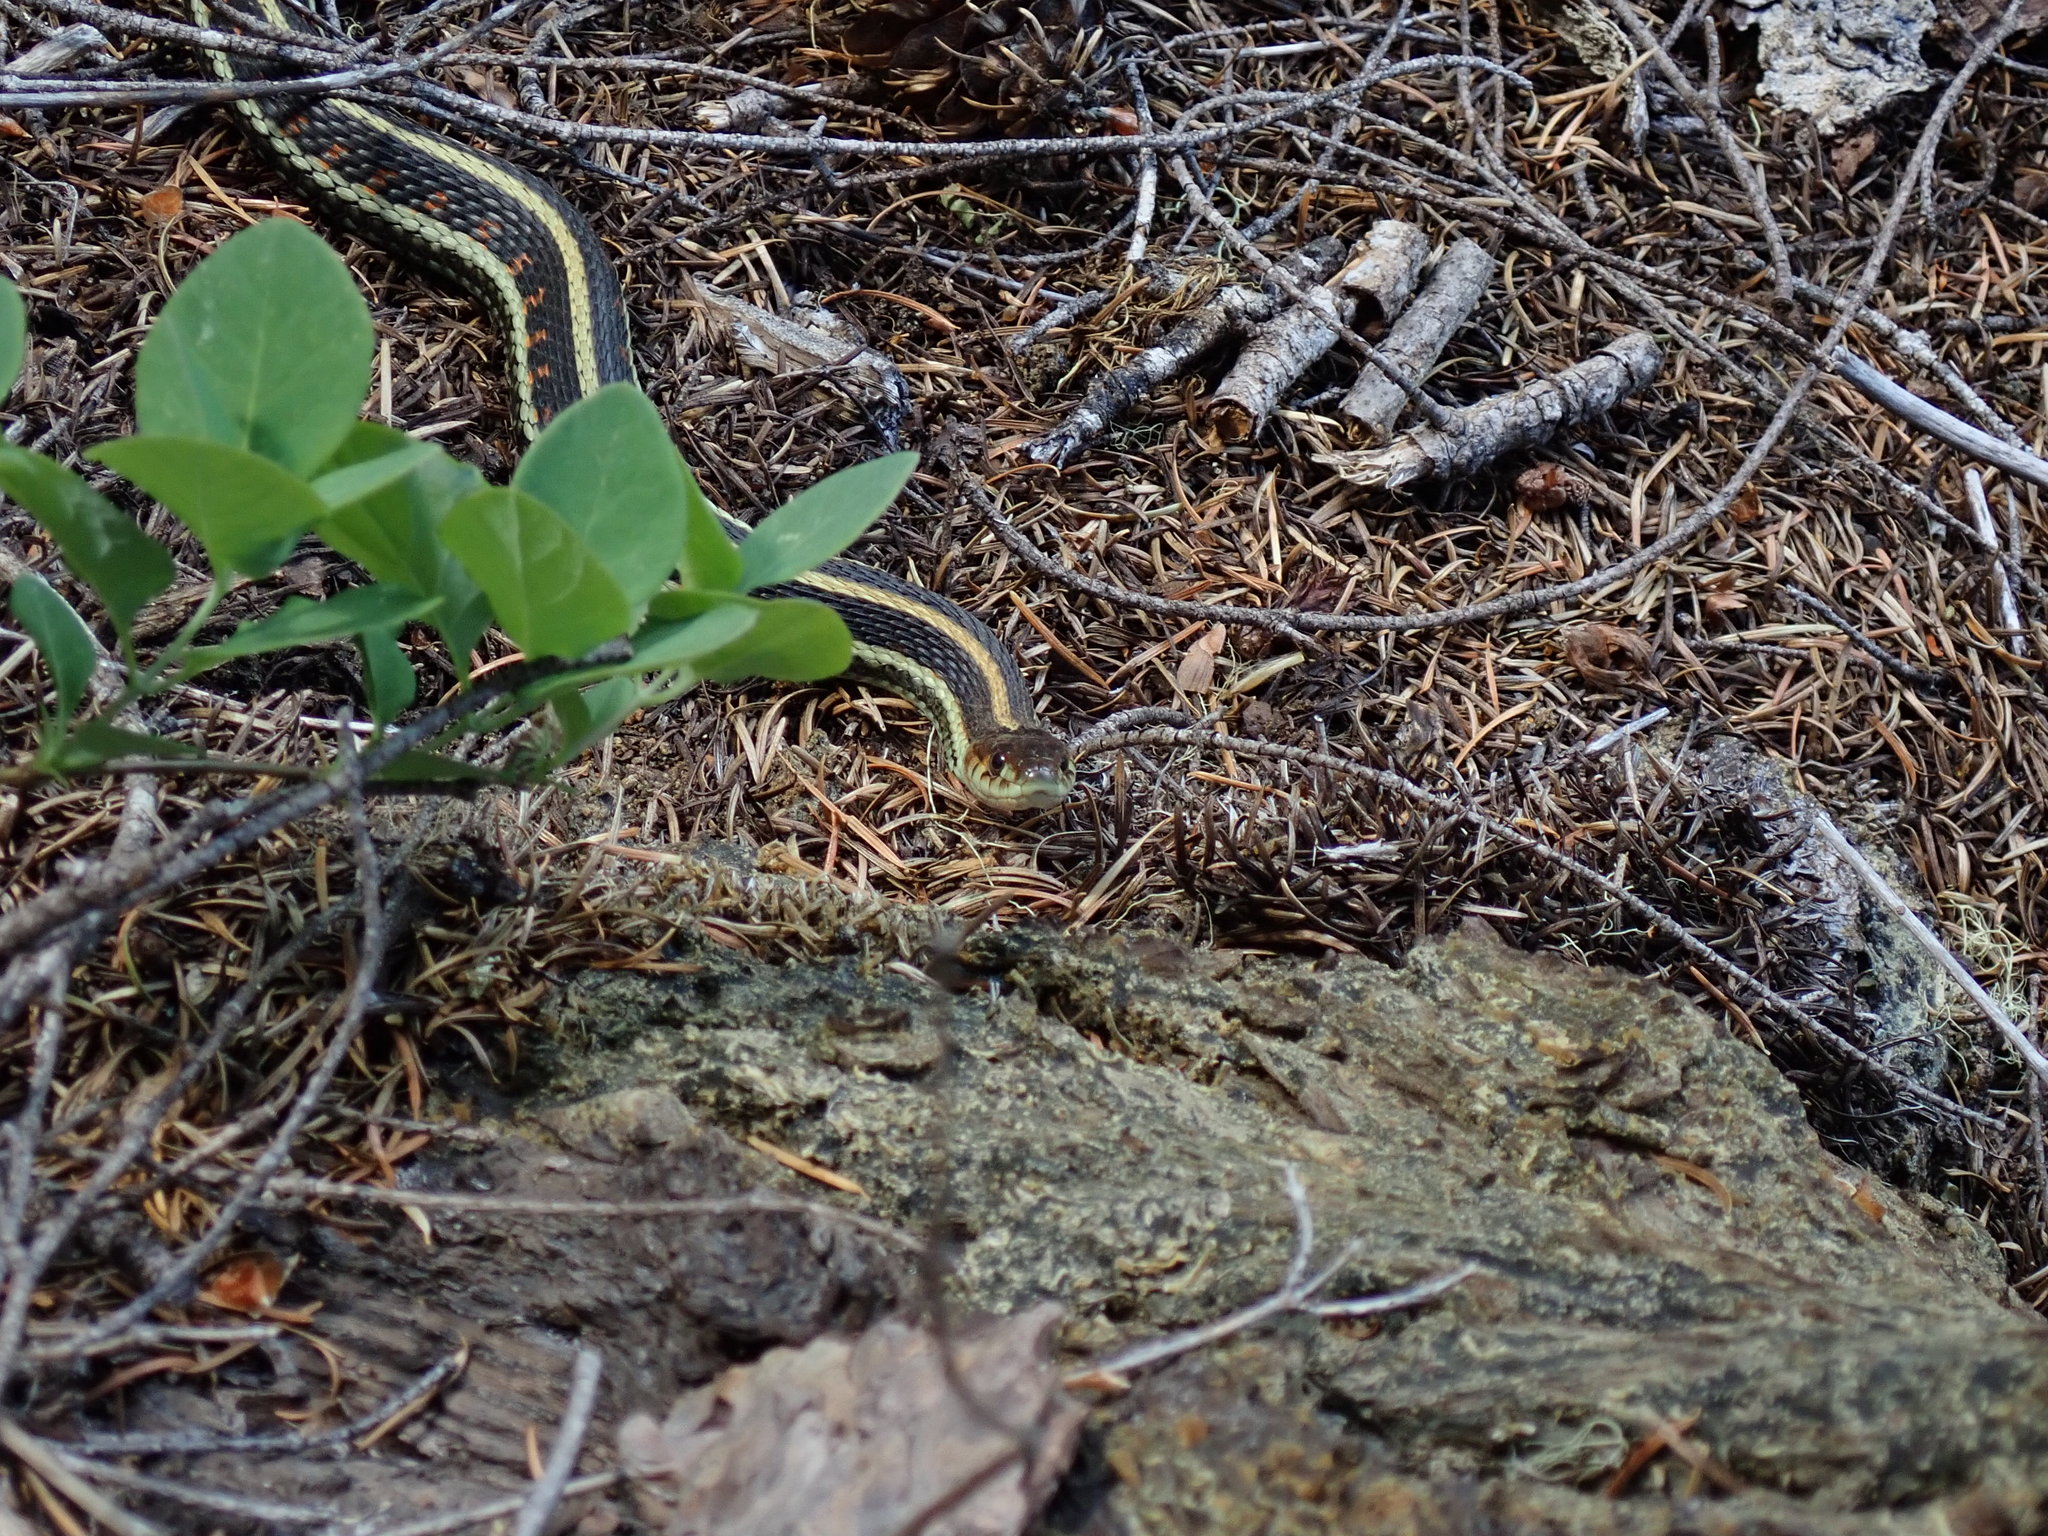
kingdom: Animalia
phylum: Chordata
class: Squamata
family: Colubridae
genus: Thamnophis
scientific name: Thamnophis sirtalis
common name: Common garter snake
